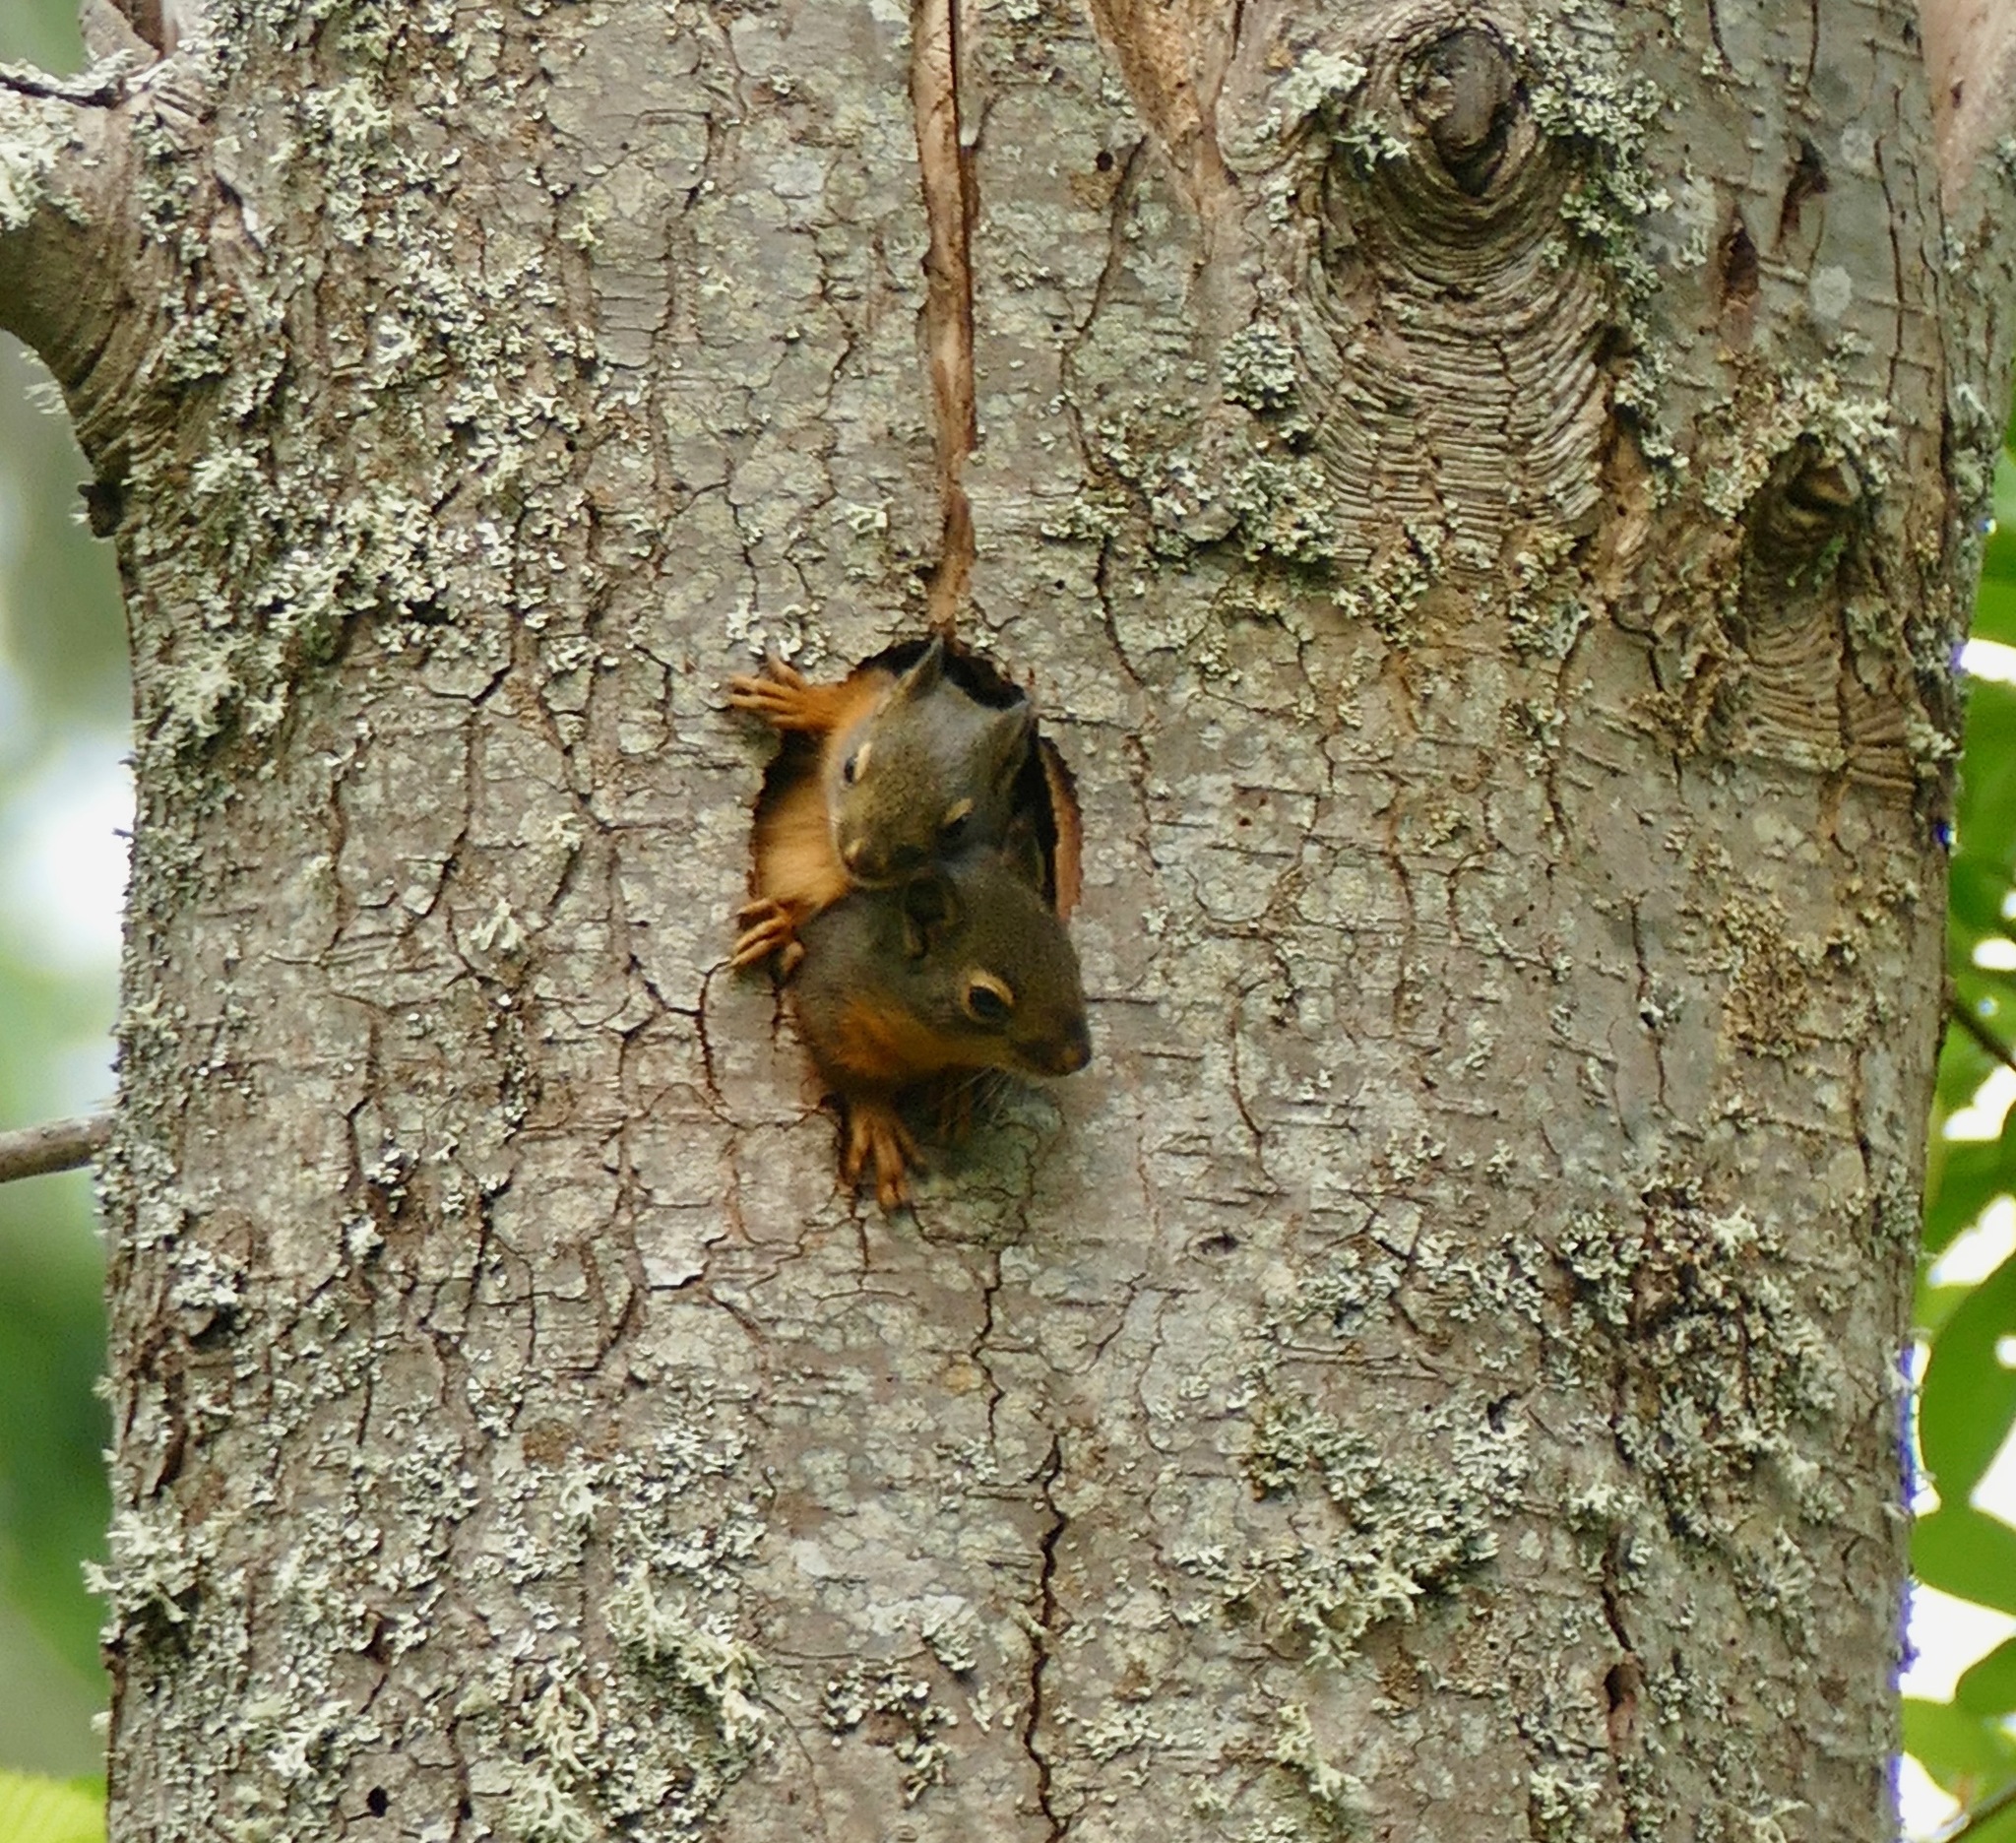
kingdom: Animalia
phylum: Chordata
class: Mammalia
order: Rodentia
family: Sciuridae
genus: Tamiasciurus
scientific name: Tamiasciurus douglasii
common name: Douglas's squirrel
